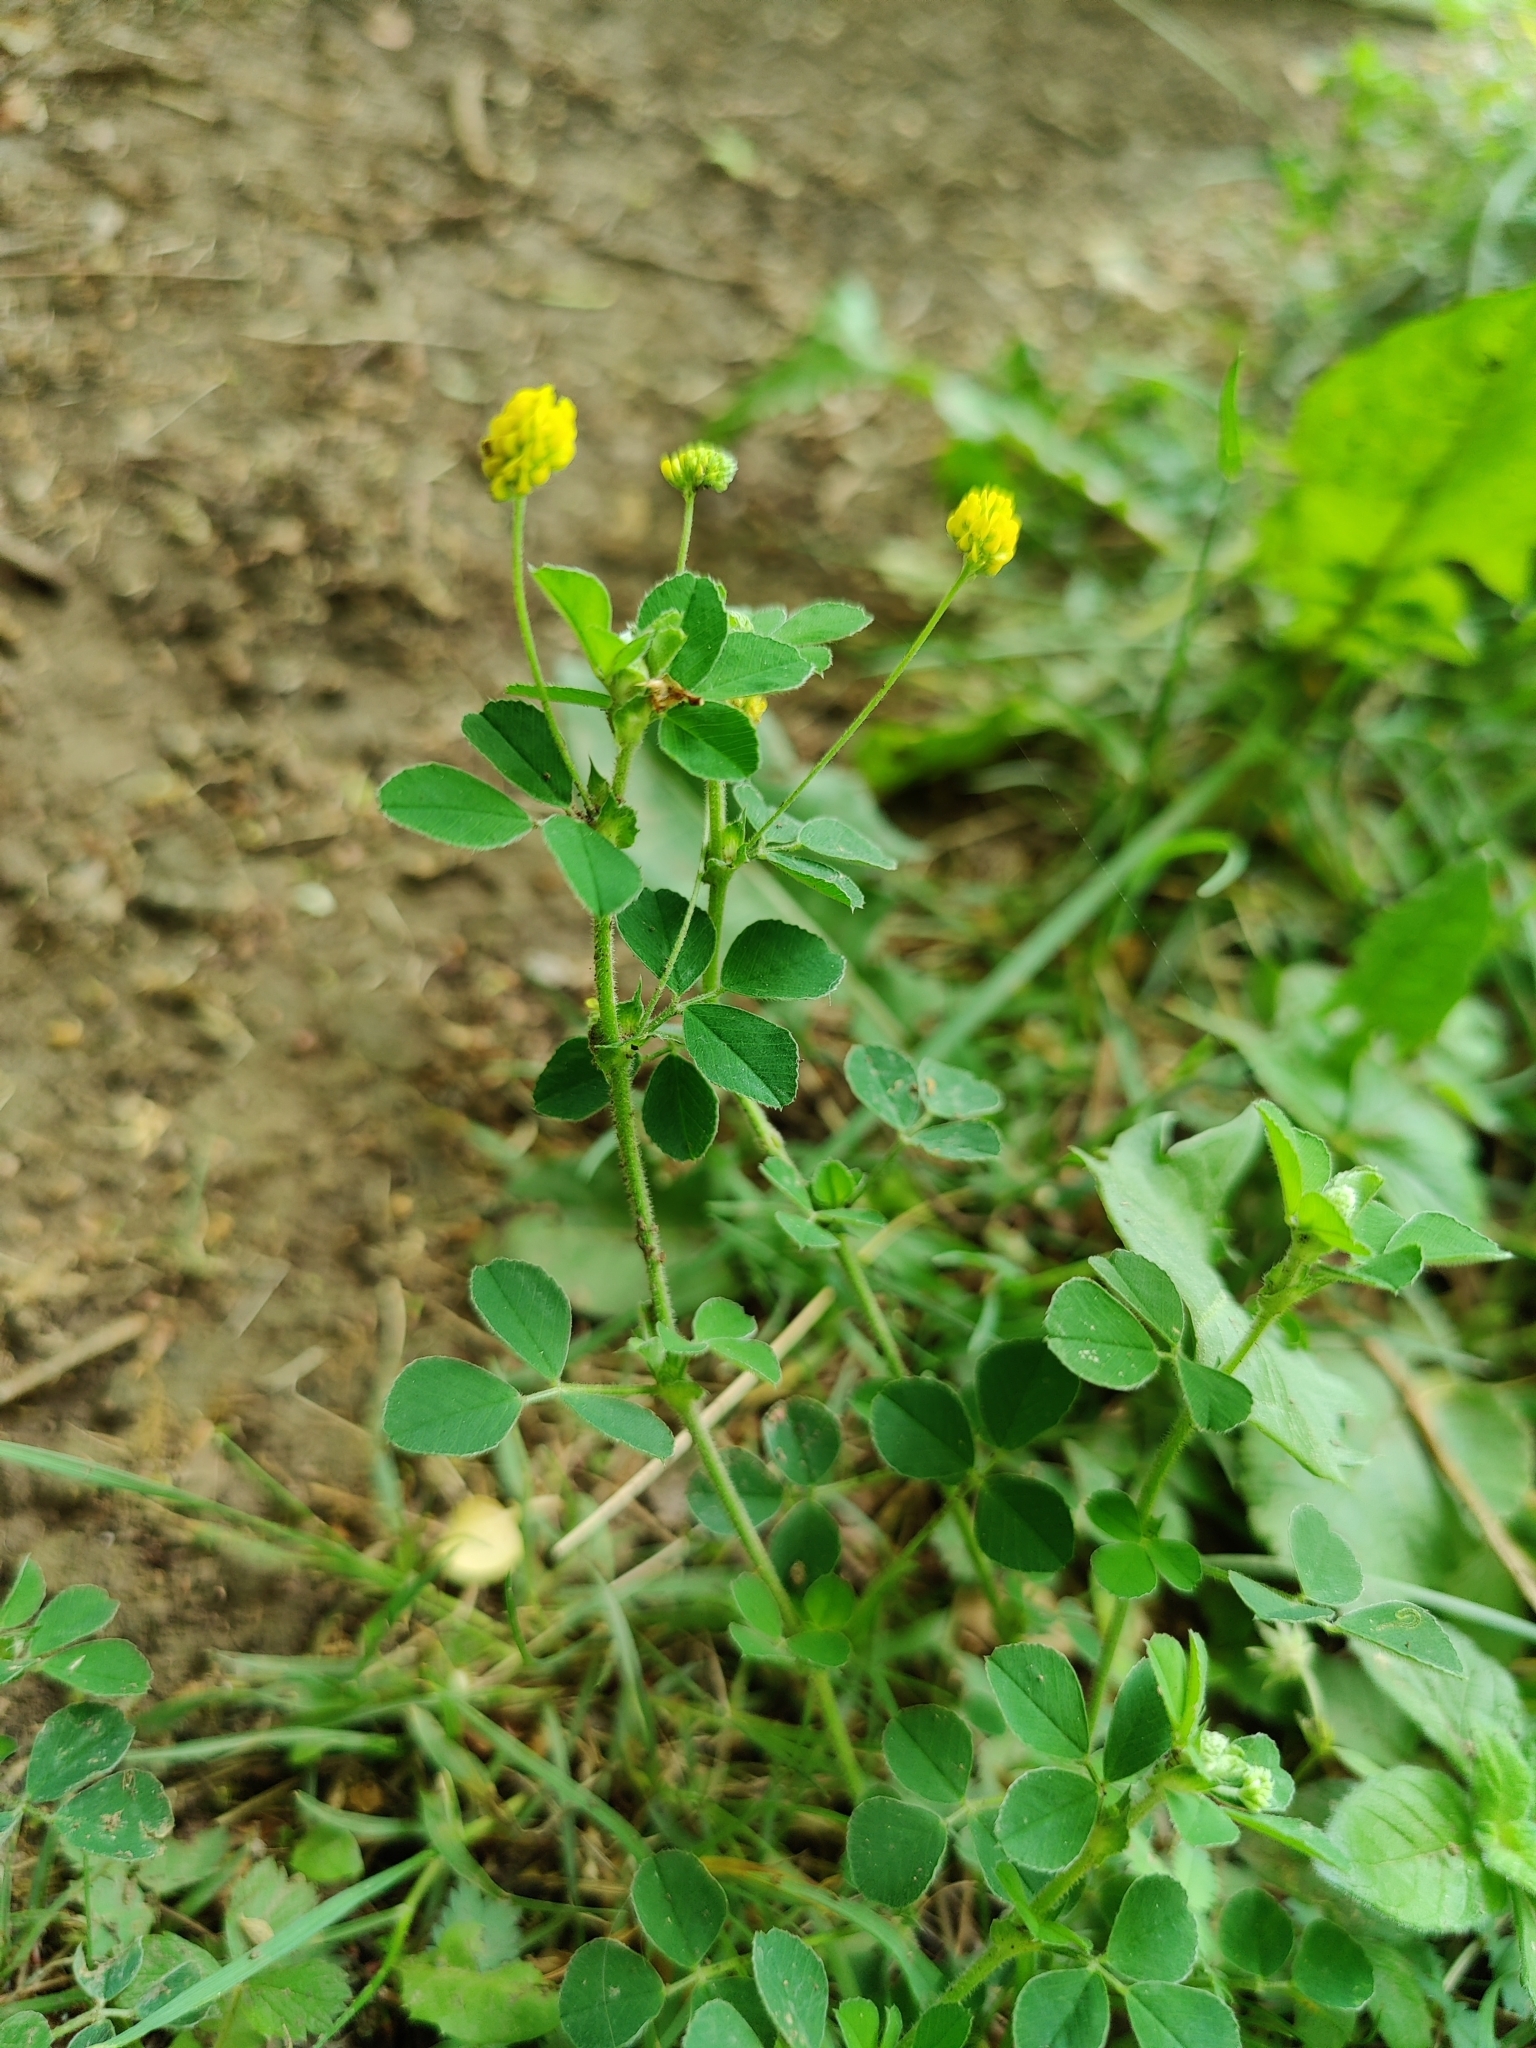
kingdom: Plantae
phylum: Tracheophyta
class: Magnoliopsida
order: Fabales
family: Fabaceae
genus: Medicago
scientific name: Medicago lupulina
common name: Black medick
